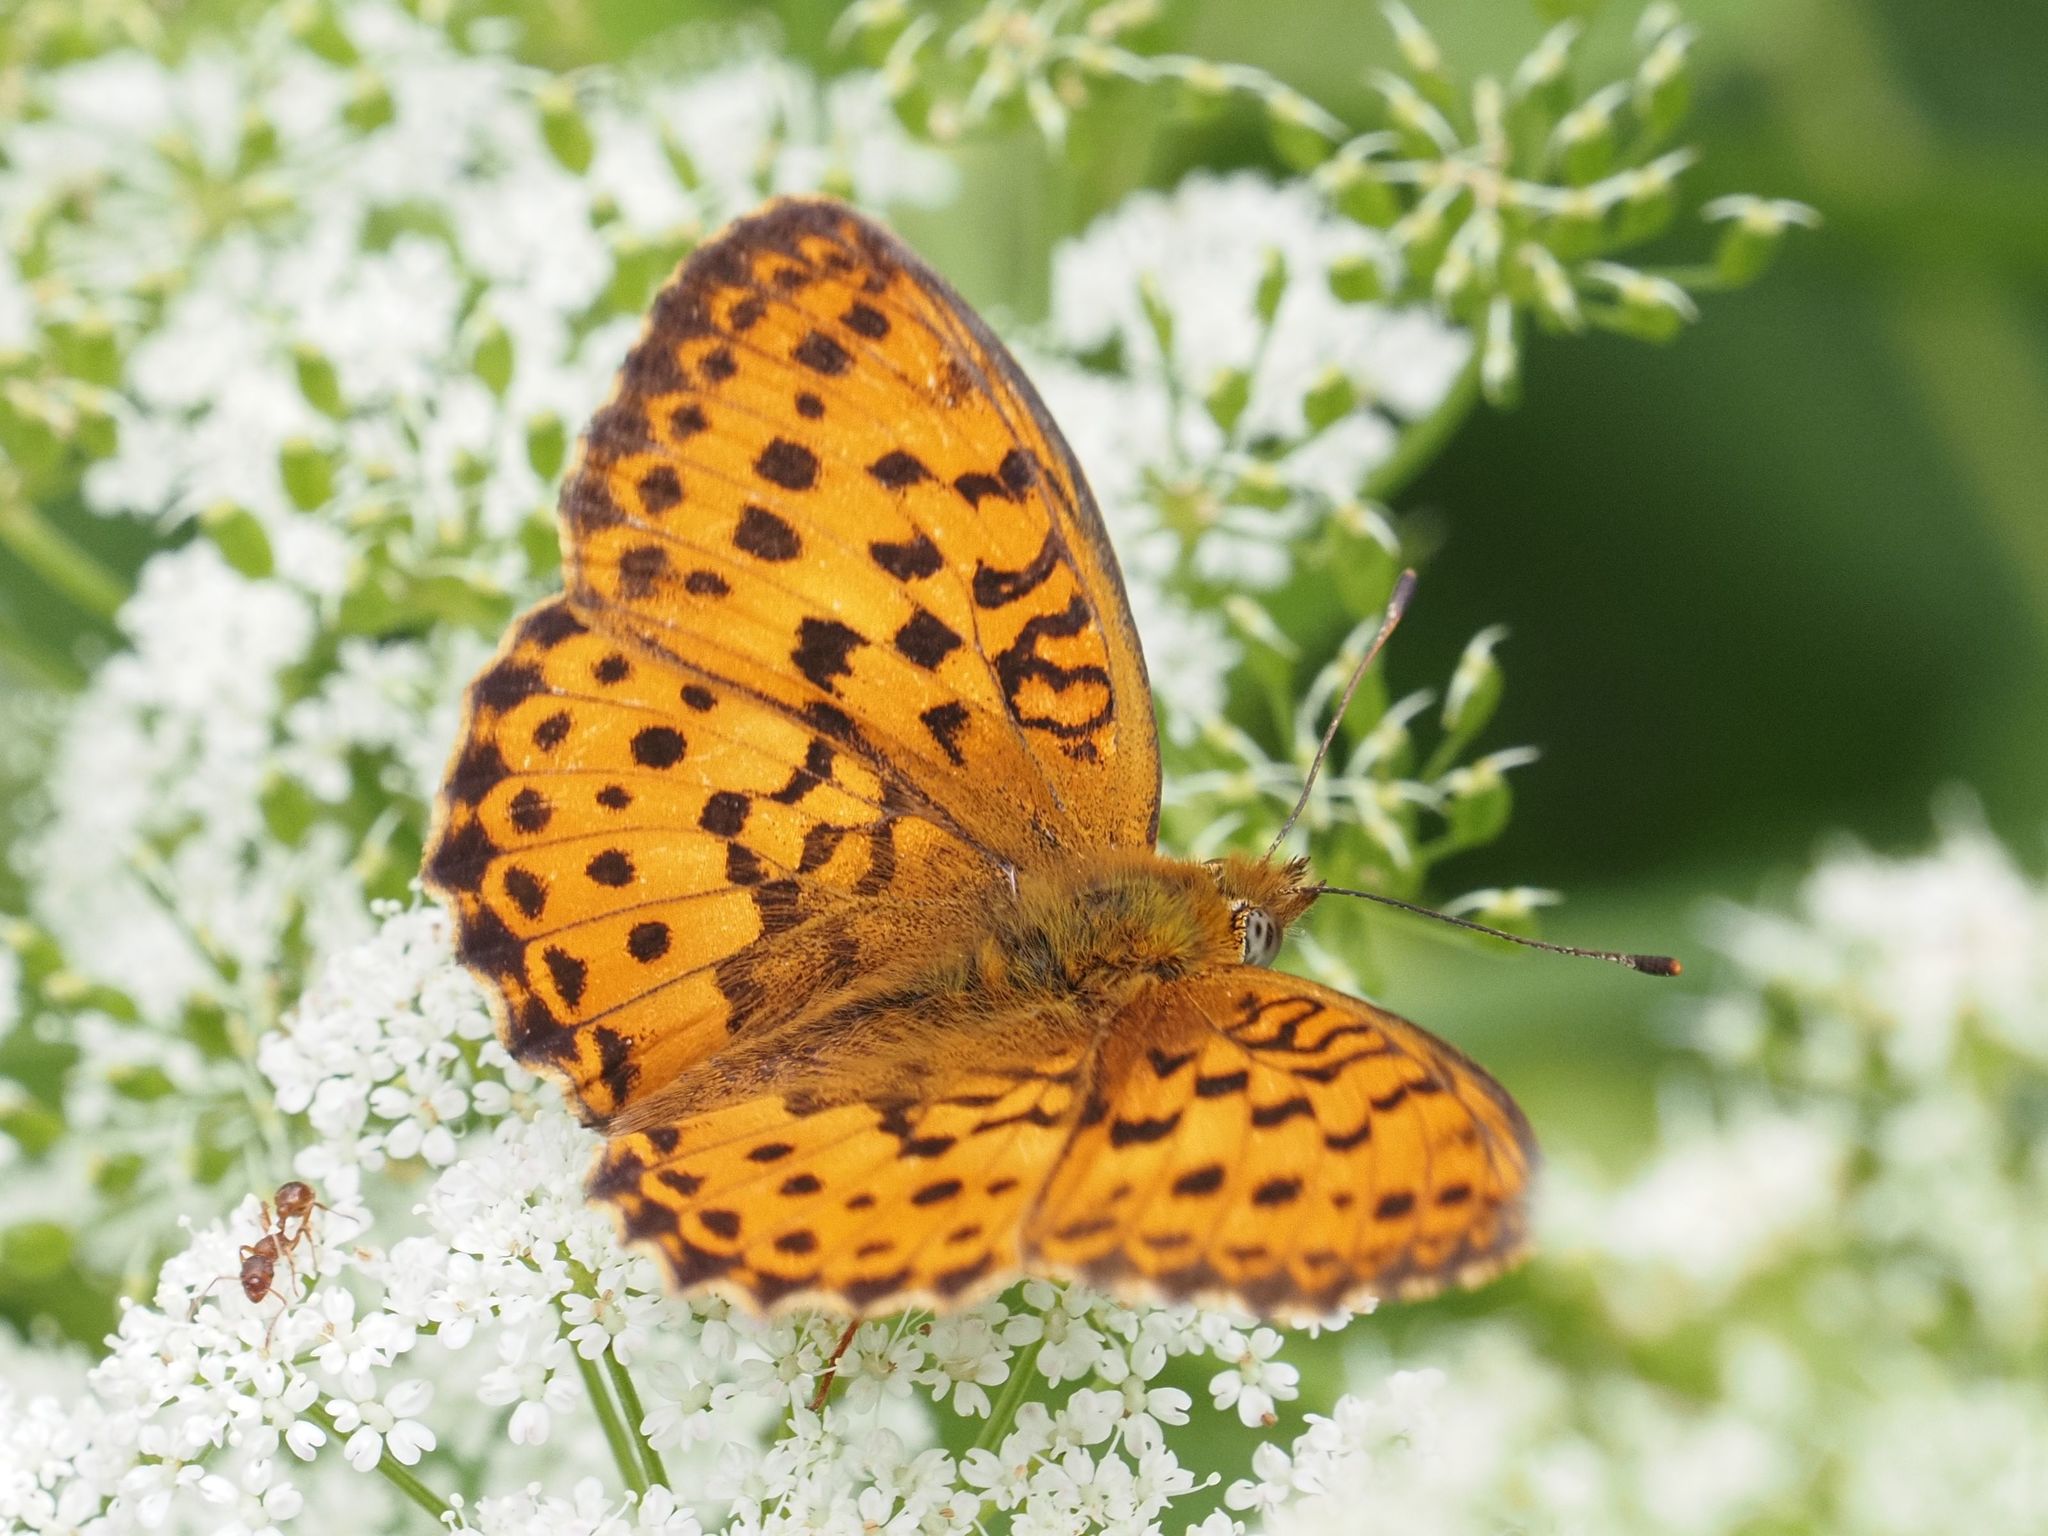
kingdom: Animalia
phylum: Arthropoda
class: Insecta
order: Lepidoptera
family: Nymphalidae
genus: Brenthis
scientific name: Brenthis daphne
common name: Marbled fritillary
